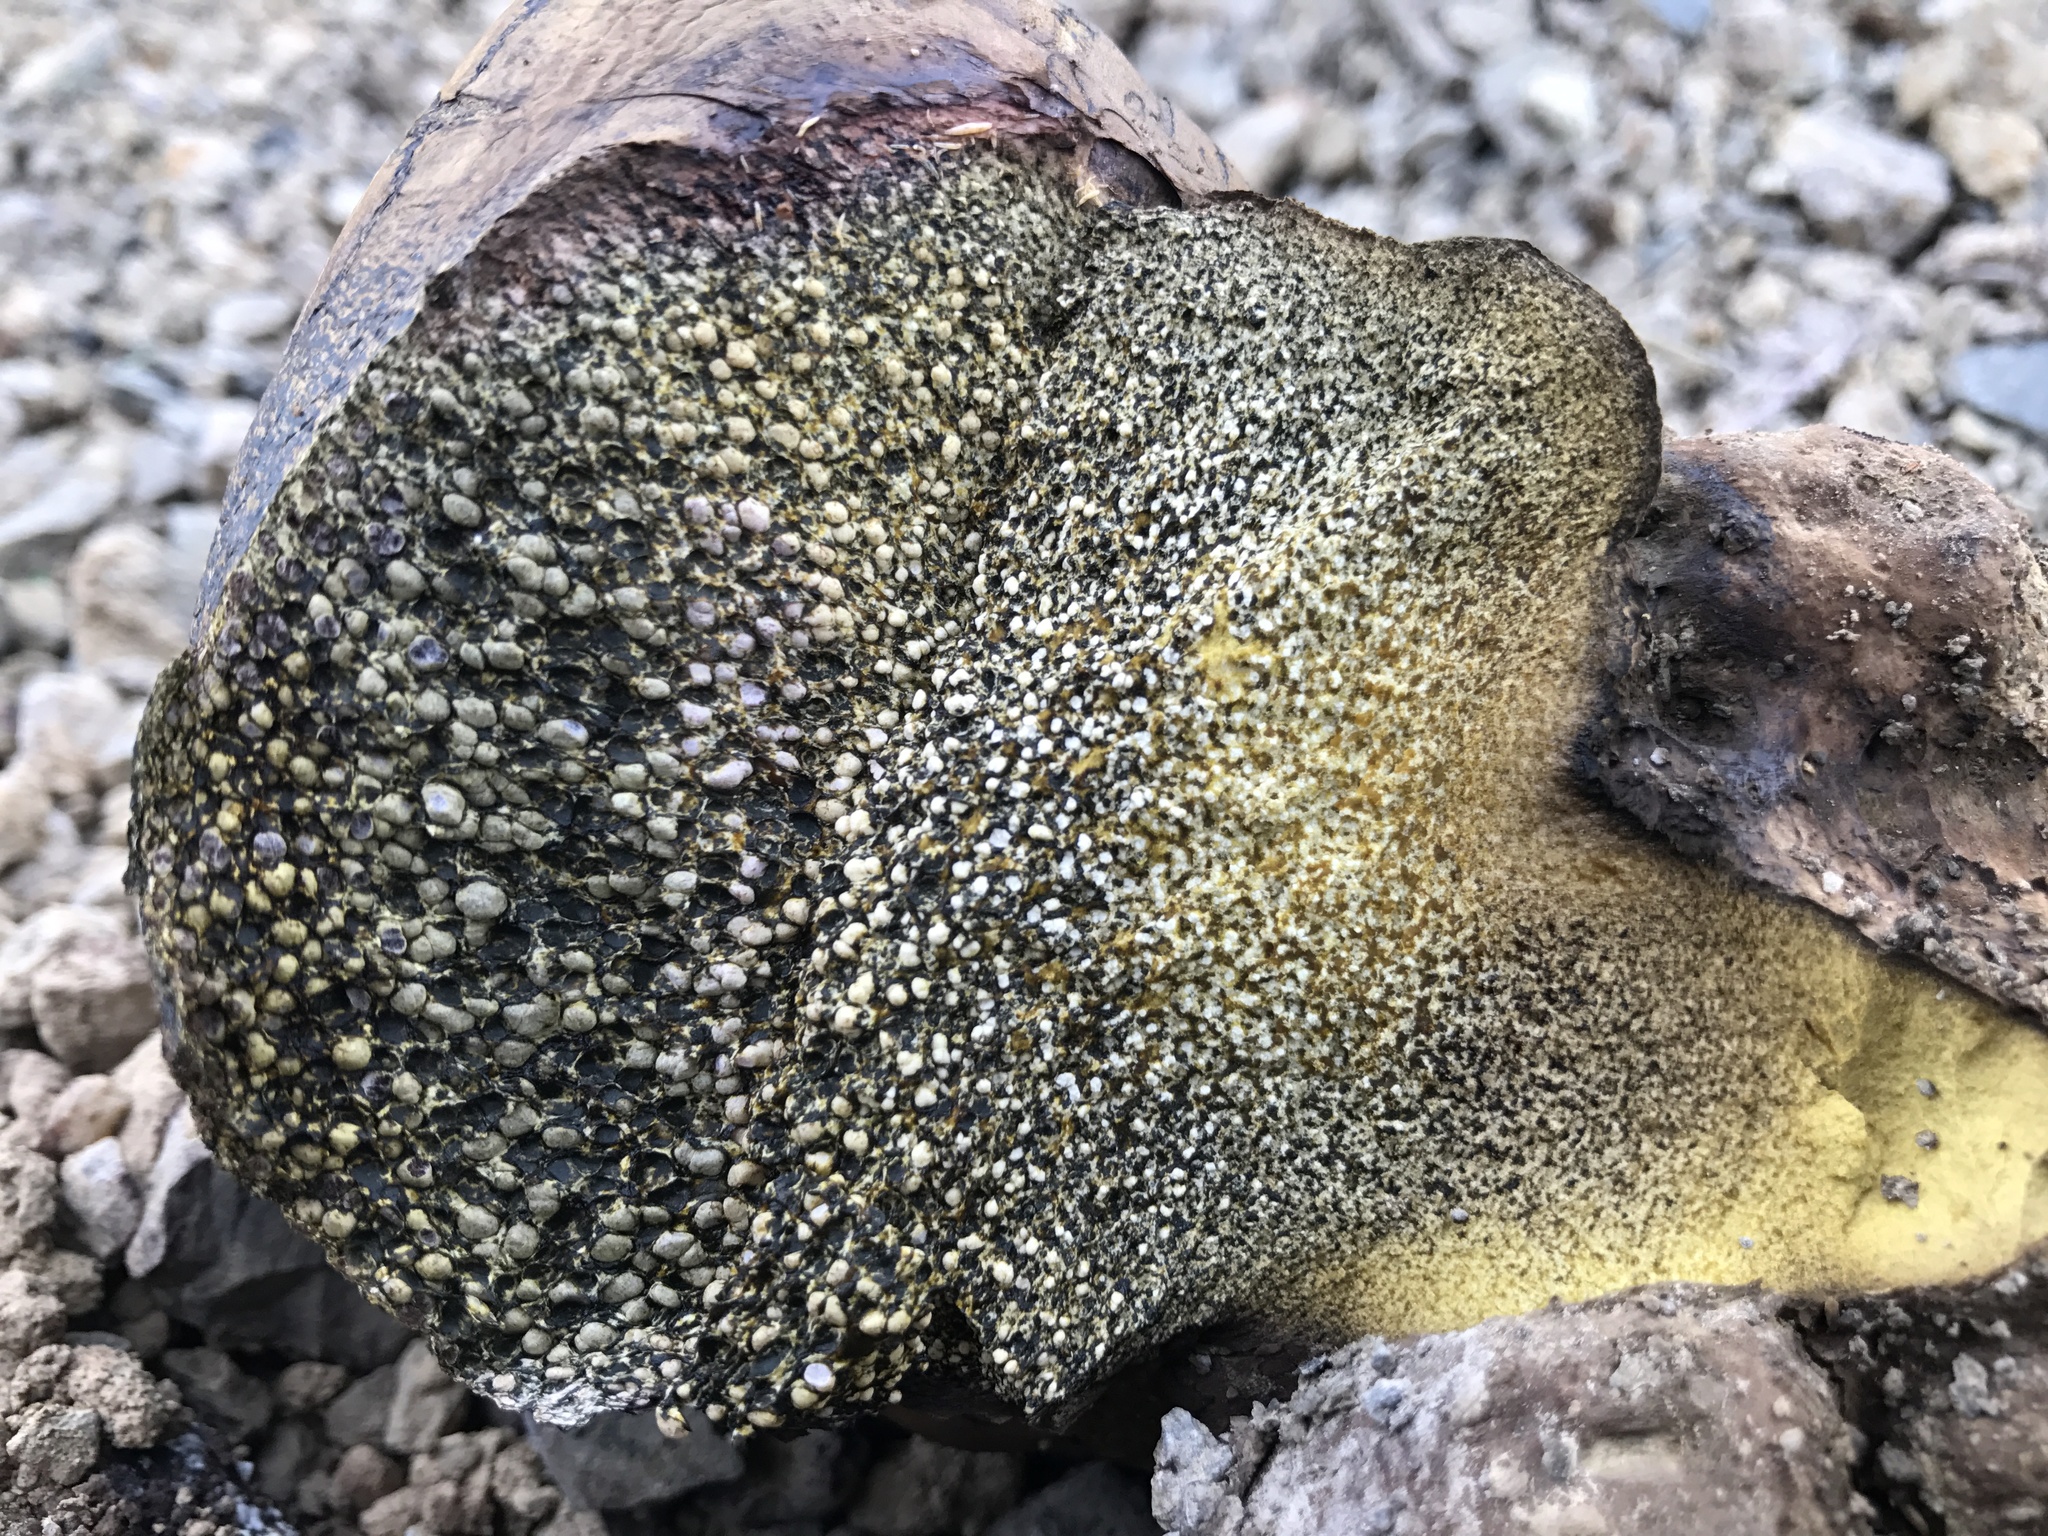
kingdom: Fungi
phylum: Basidiomycota
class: Agaricomycetes
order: Boletales
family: Sclerodermataceae
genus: Pisolithus
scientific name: Pisolithus arhizus
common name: Dyeball
